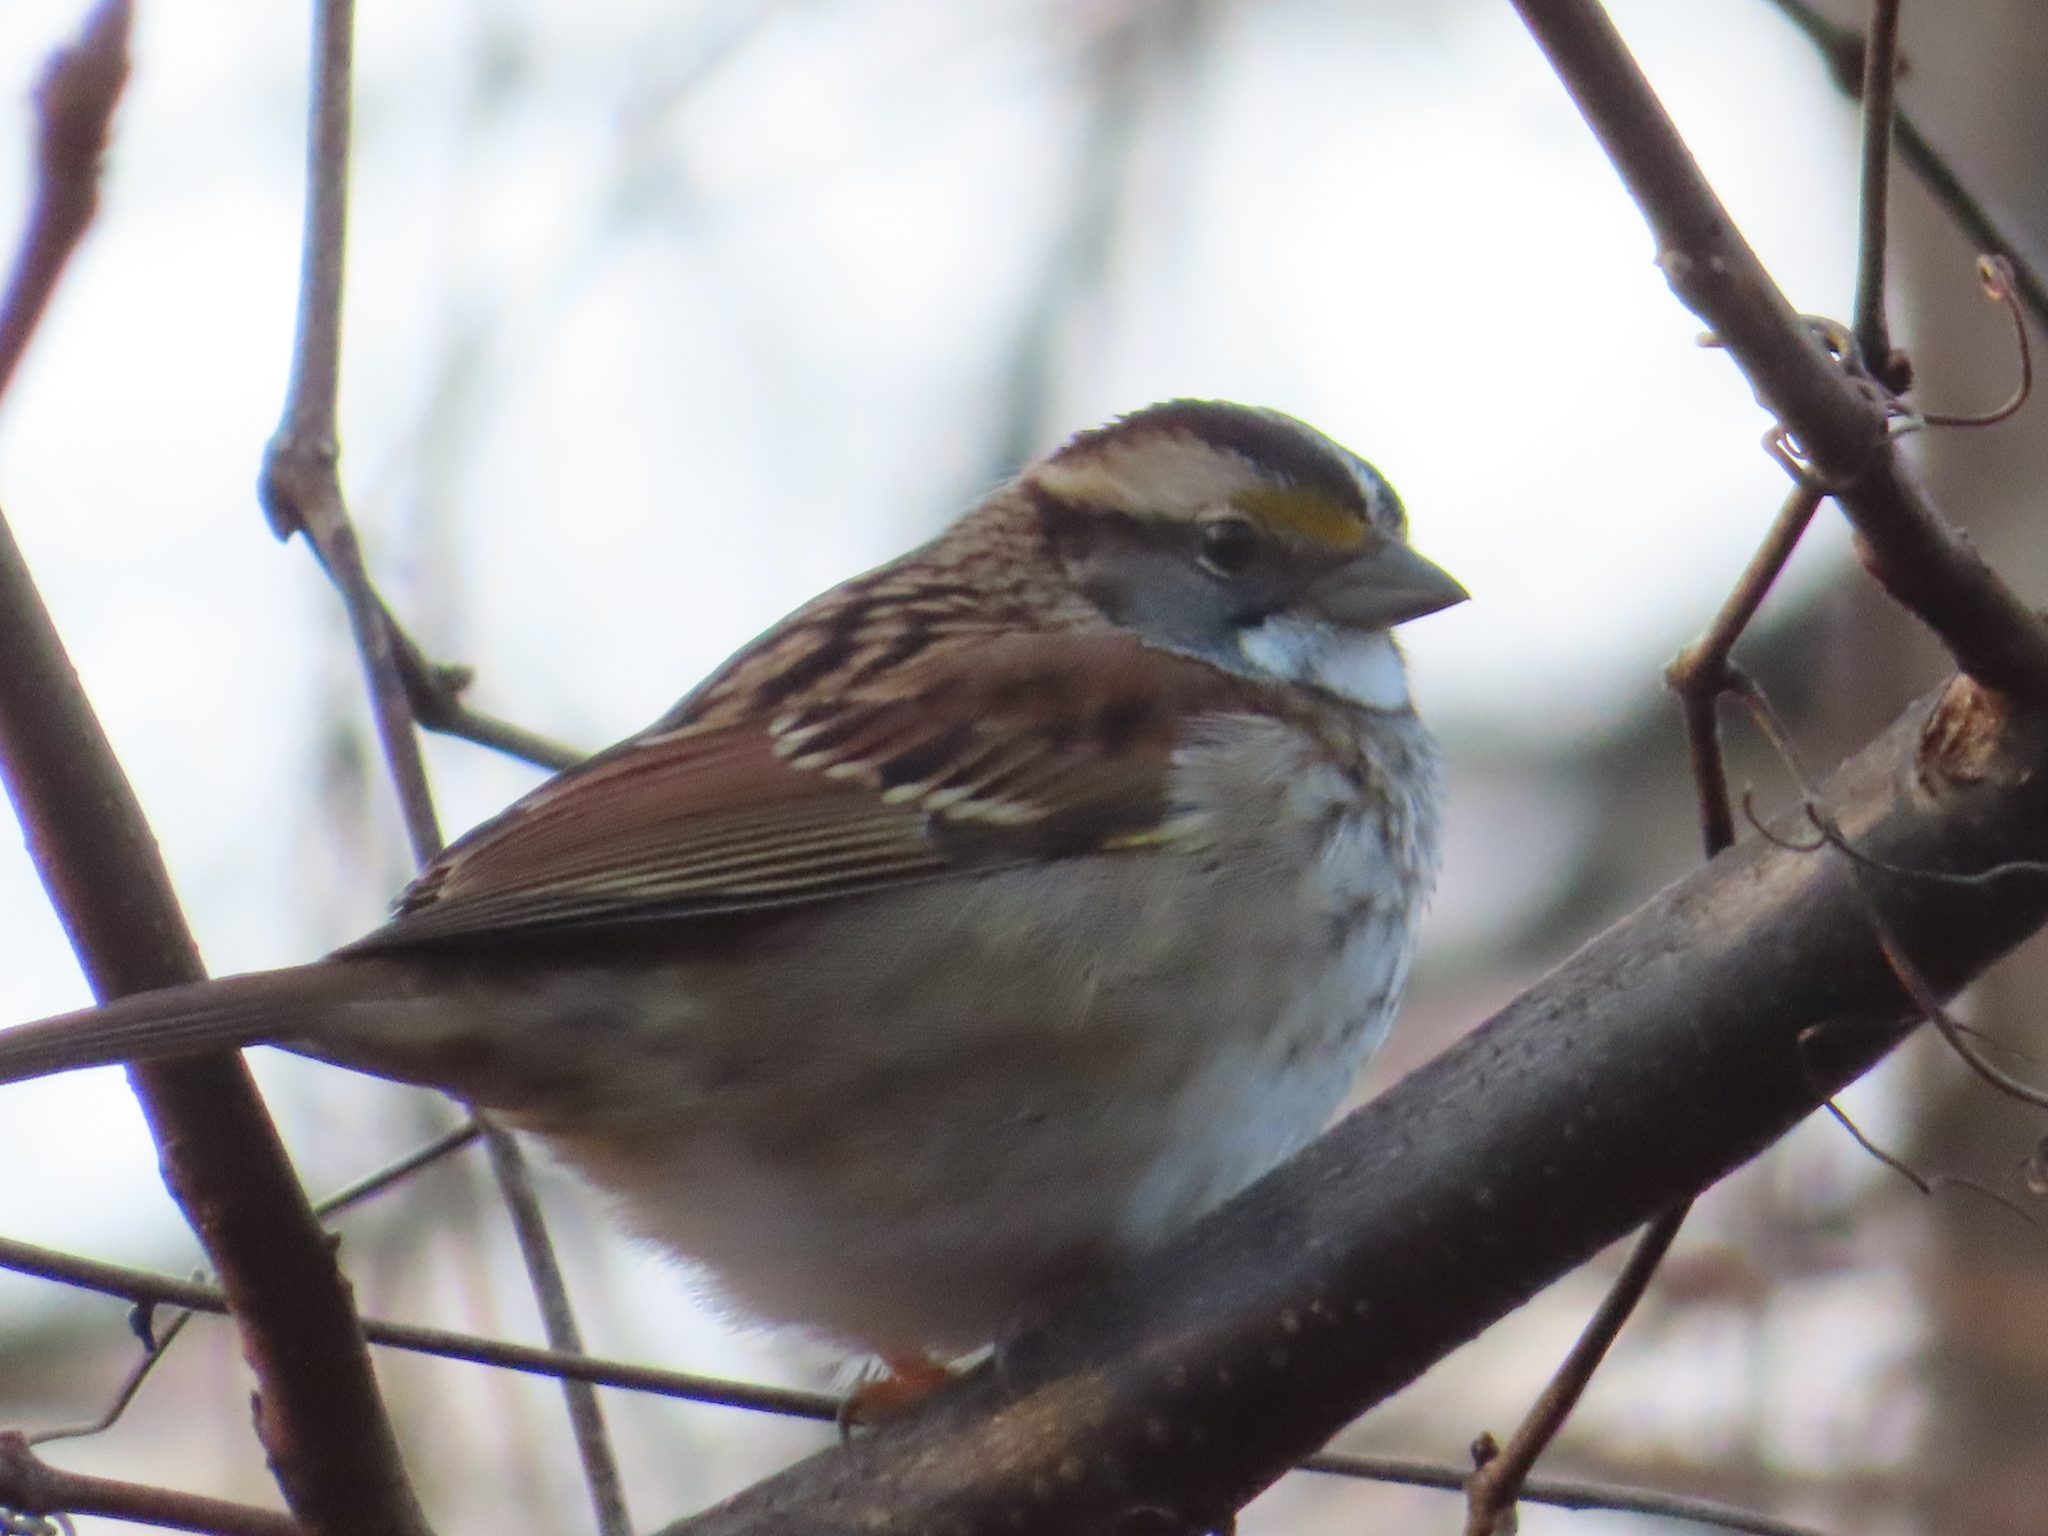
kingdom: Animalia
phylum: Chordata
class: Aves
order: Passeriformes
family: Passerellidae
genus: Zonotrichia
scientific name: Zonotrichia albicollis
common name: White-throated sparrow
